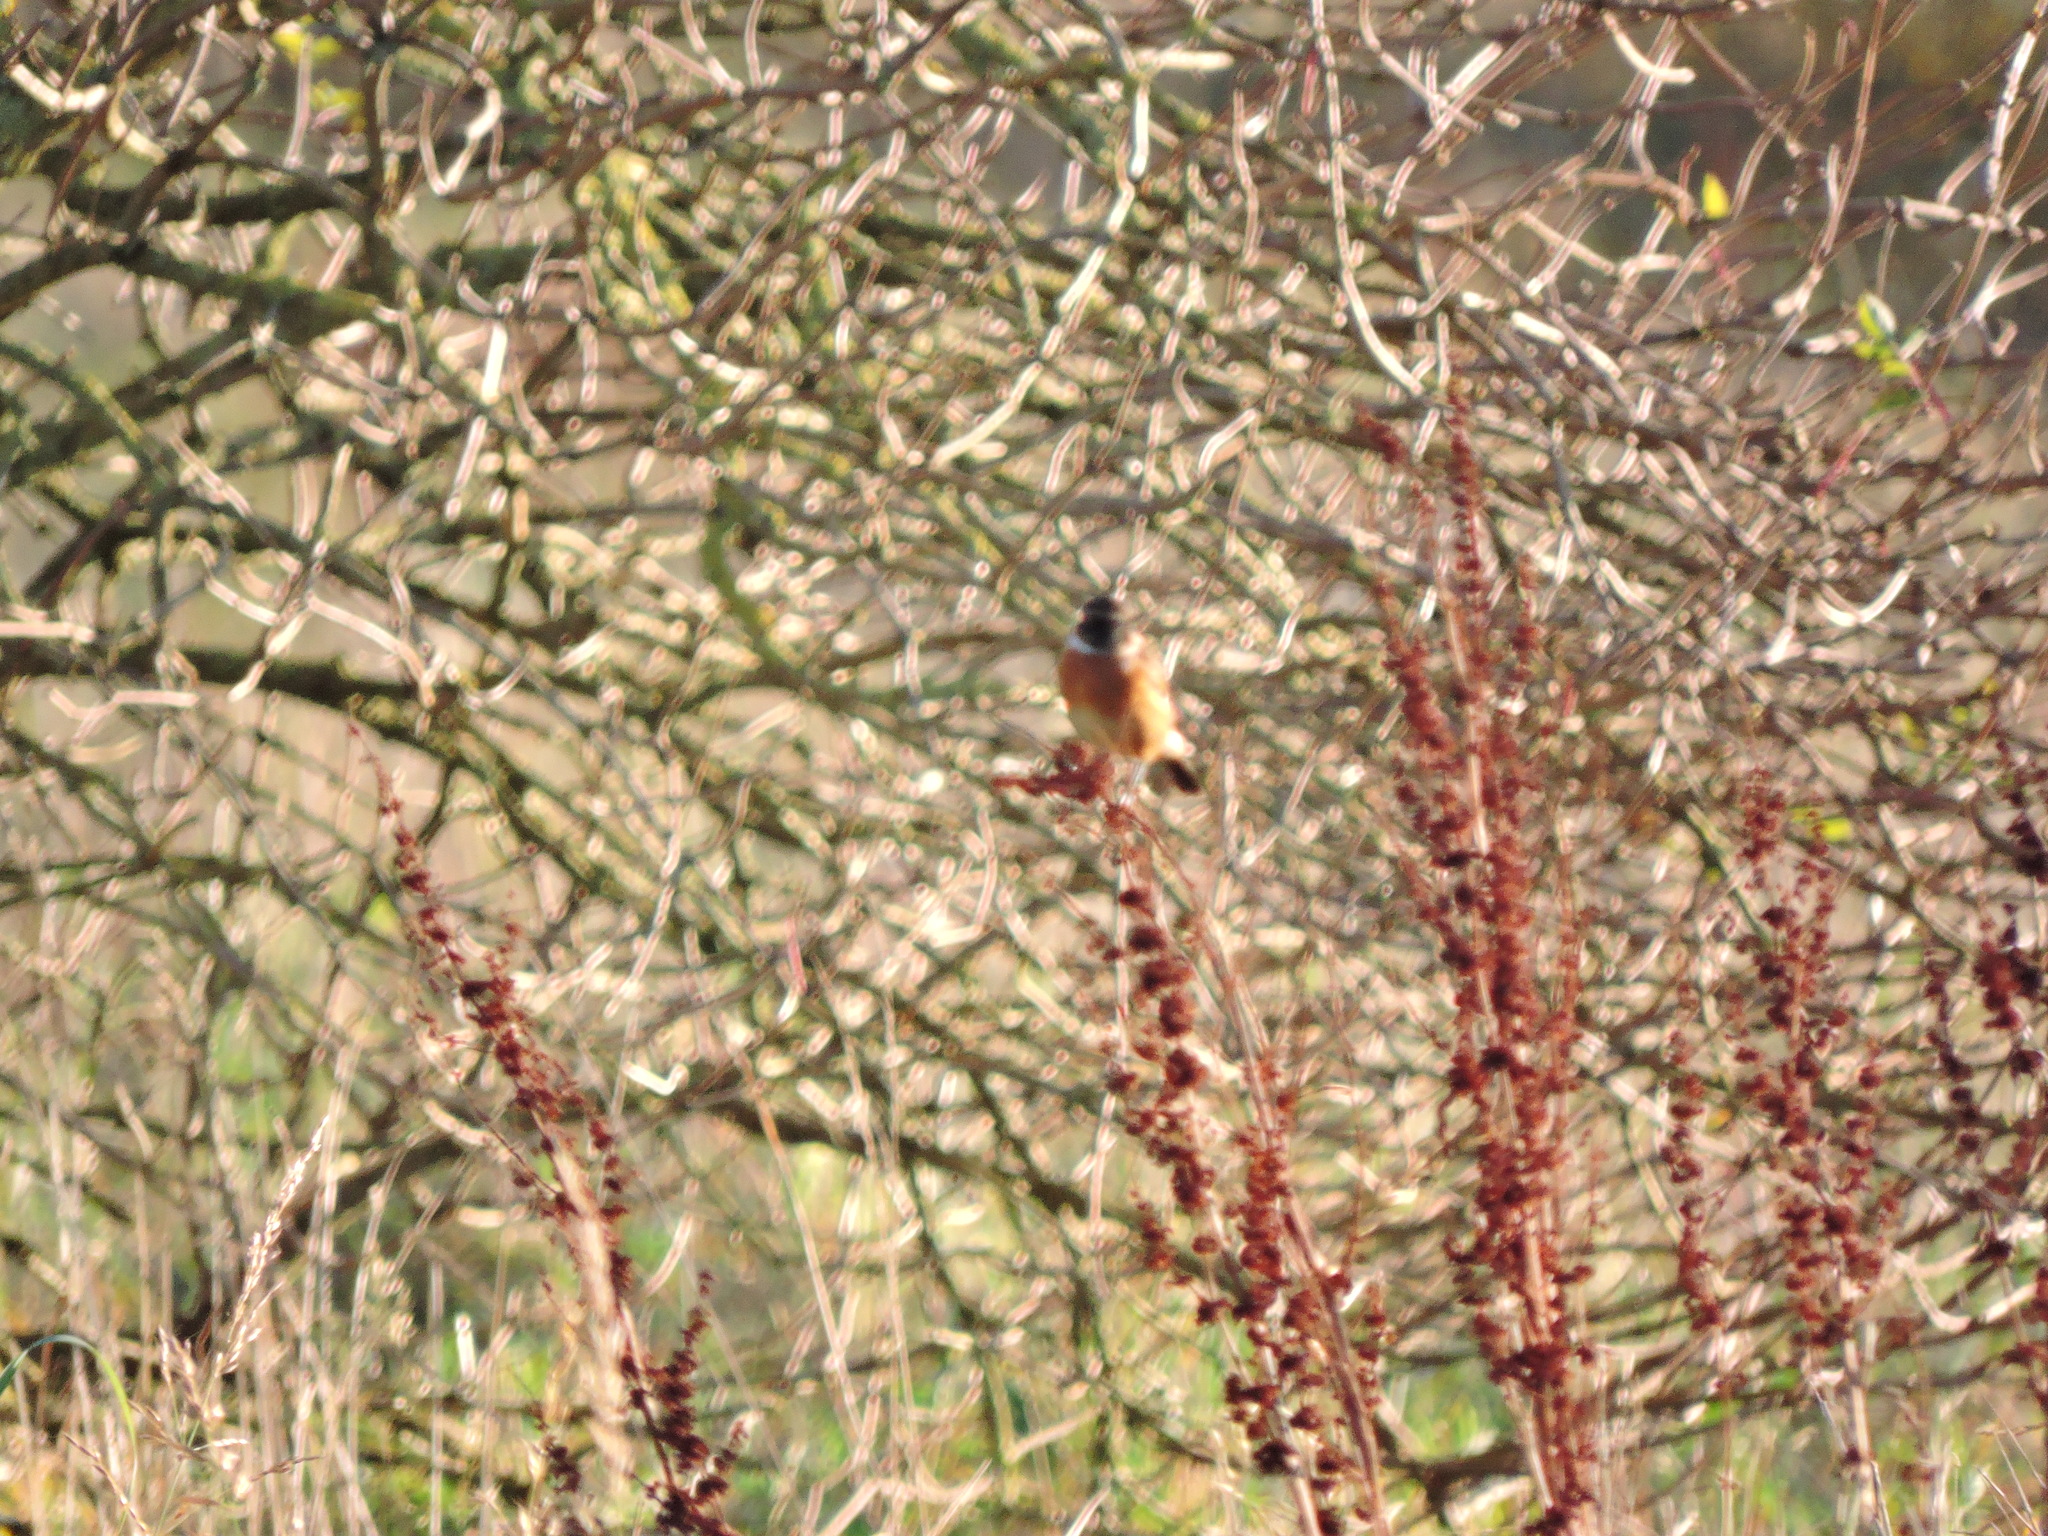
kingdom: Animalia
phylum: Chordata
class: Aves
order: Passeriformes
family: Muscicapidae
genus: Saxicola
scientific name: Saxicola rubicola
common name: European stonechat
